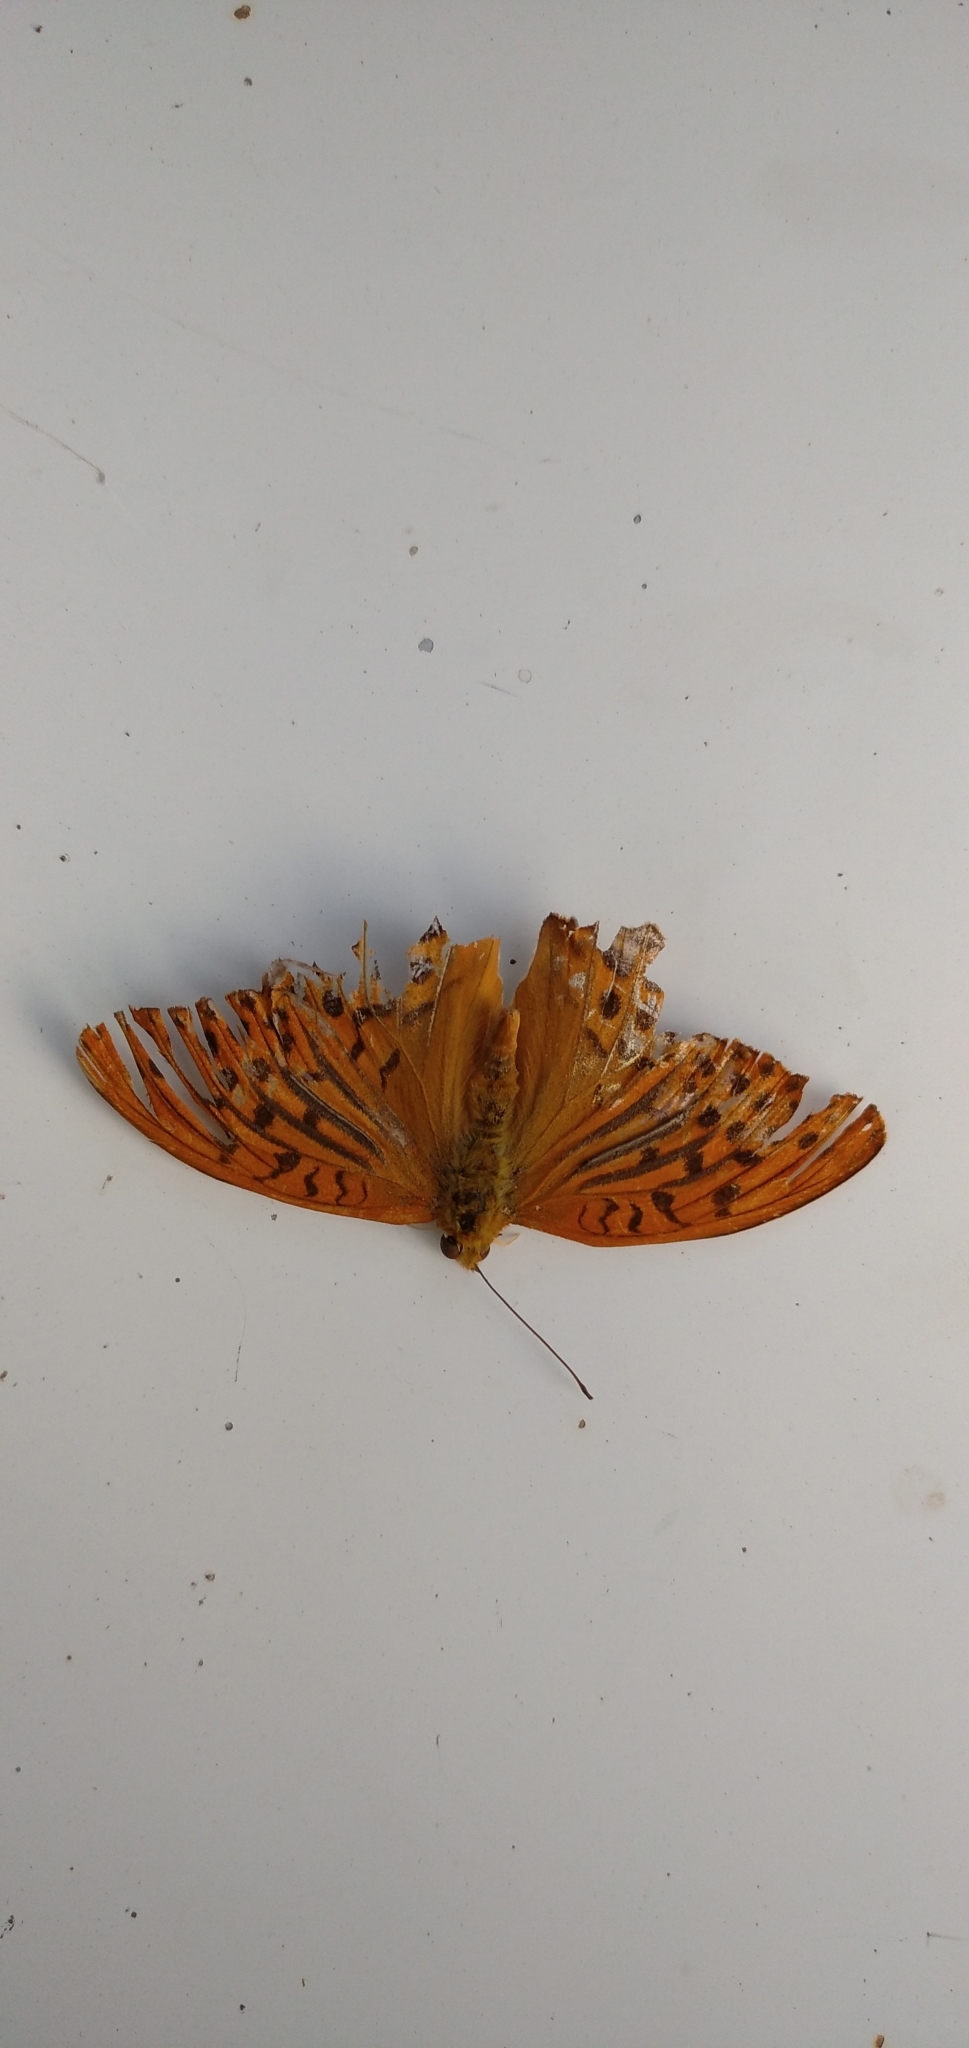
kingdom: Animalia
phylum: Arthropoda
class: Insecta
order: Lepidoptera
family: Nymphalidae
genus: Argynnis
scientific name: Argynnis paphia
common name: Silver-washed fritillary
